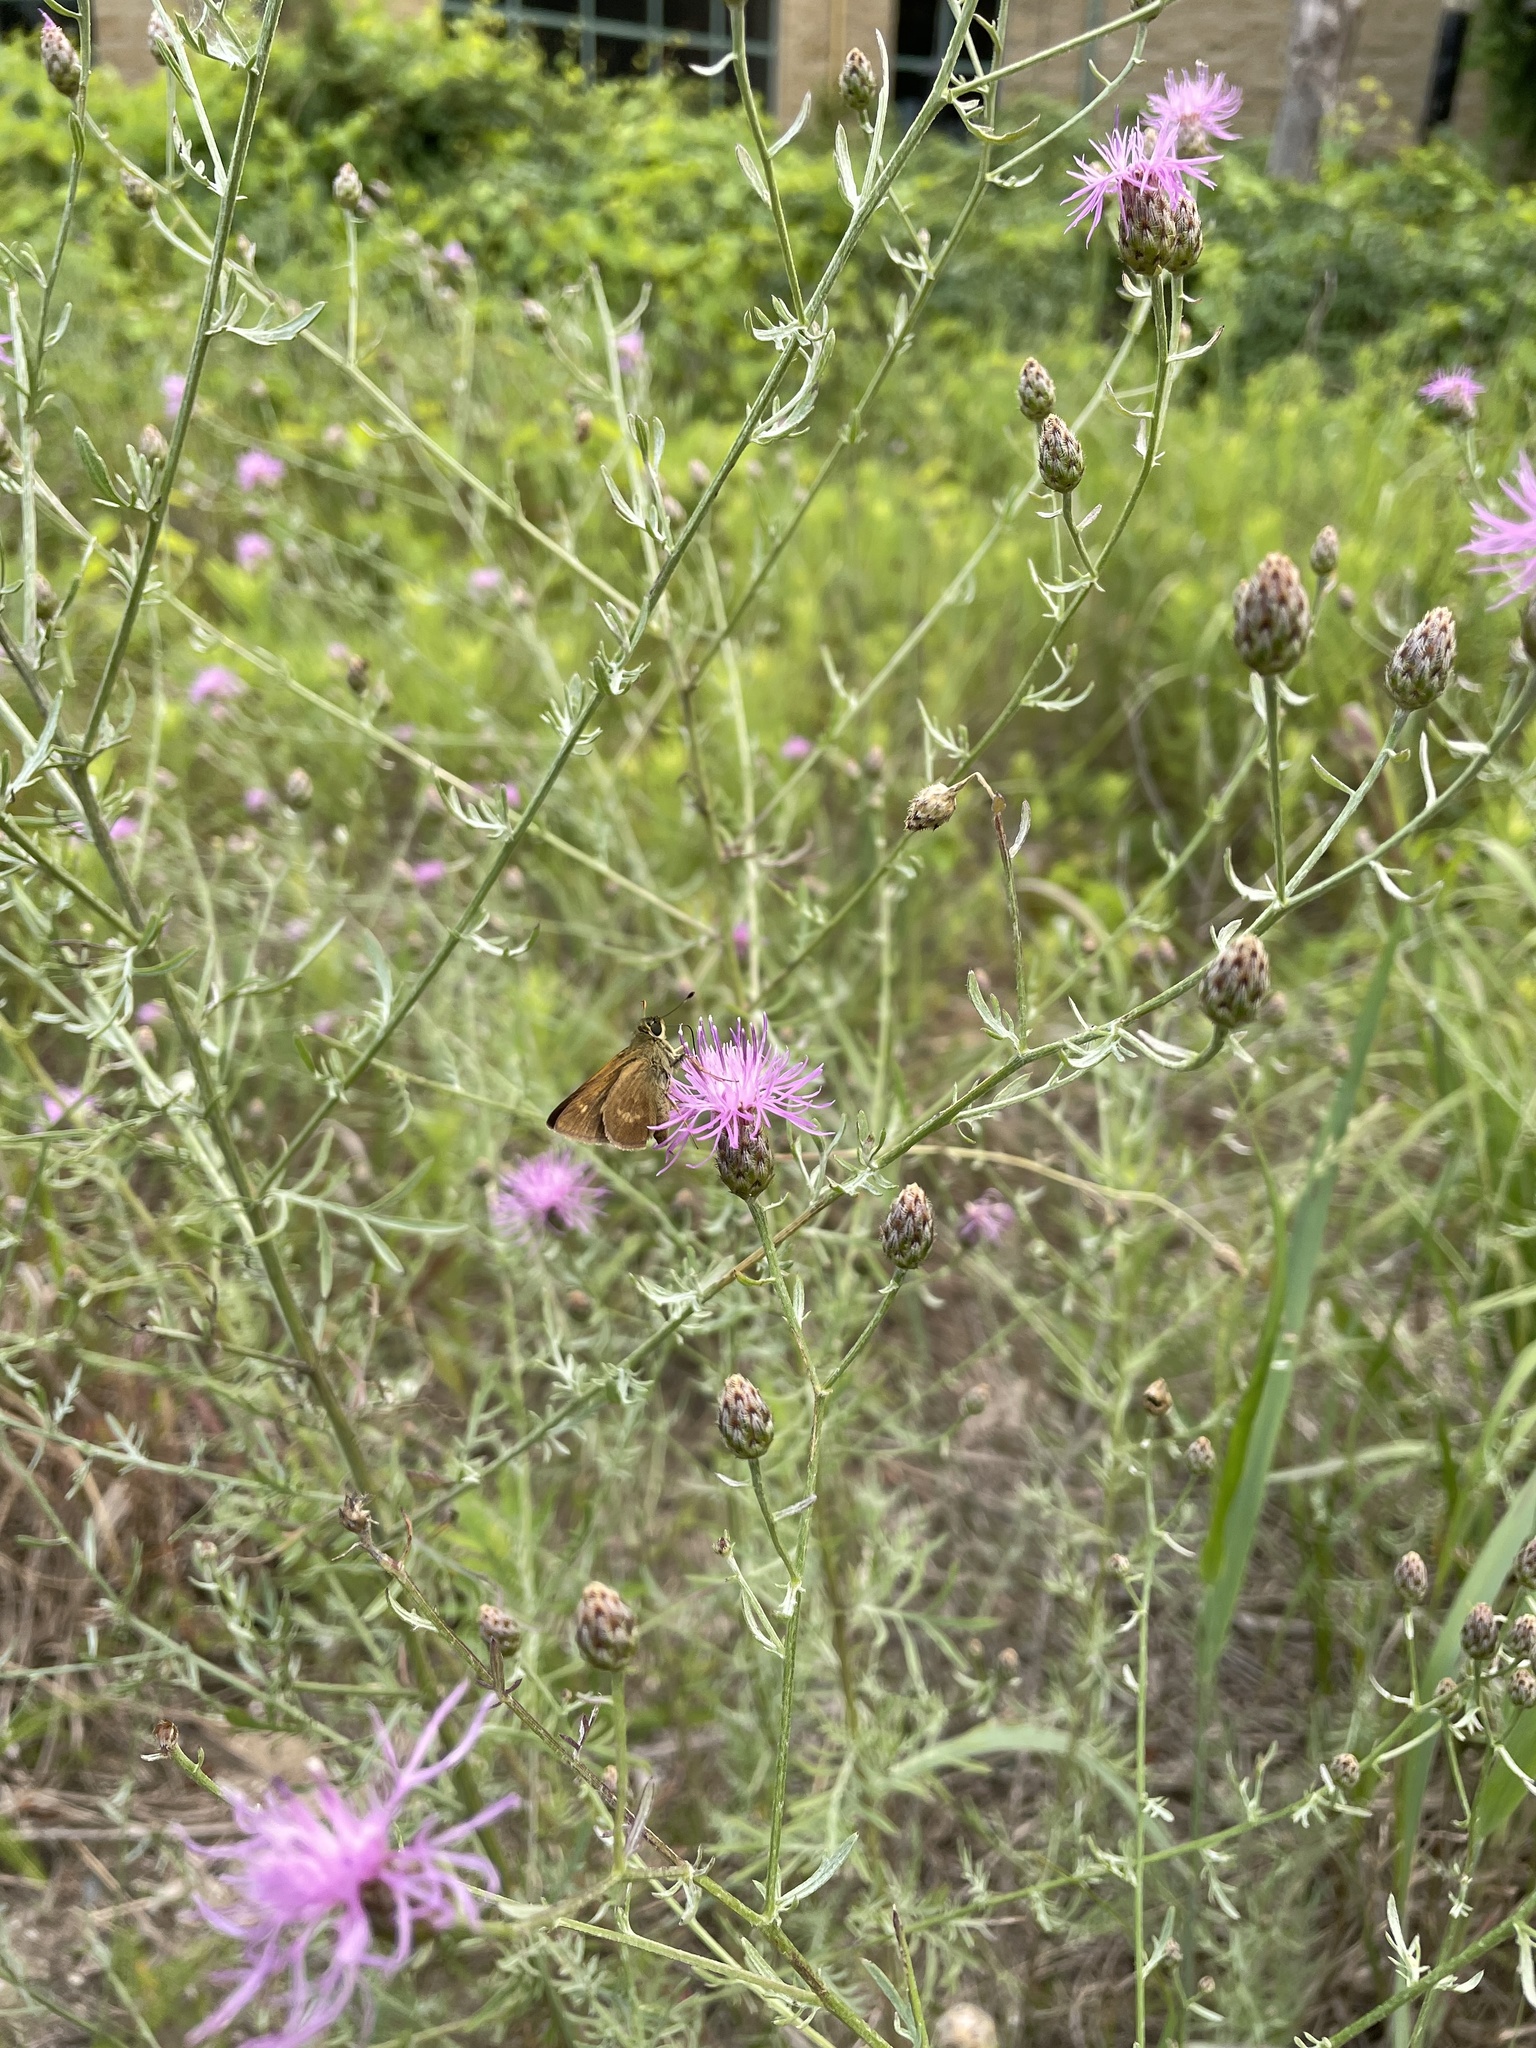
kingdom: Animalia
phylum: Arthropoda
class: Insecta
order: Lepidoptera
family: Hesperiidae
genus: Polites
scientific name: Polites egeremet
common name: Northern broken-dash
